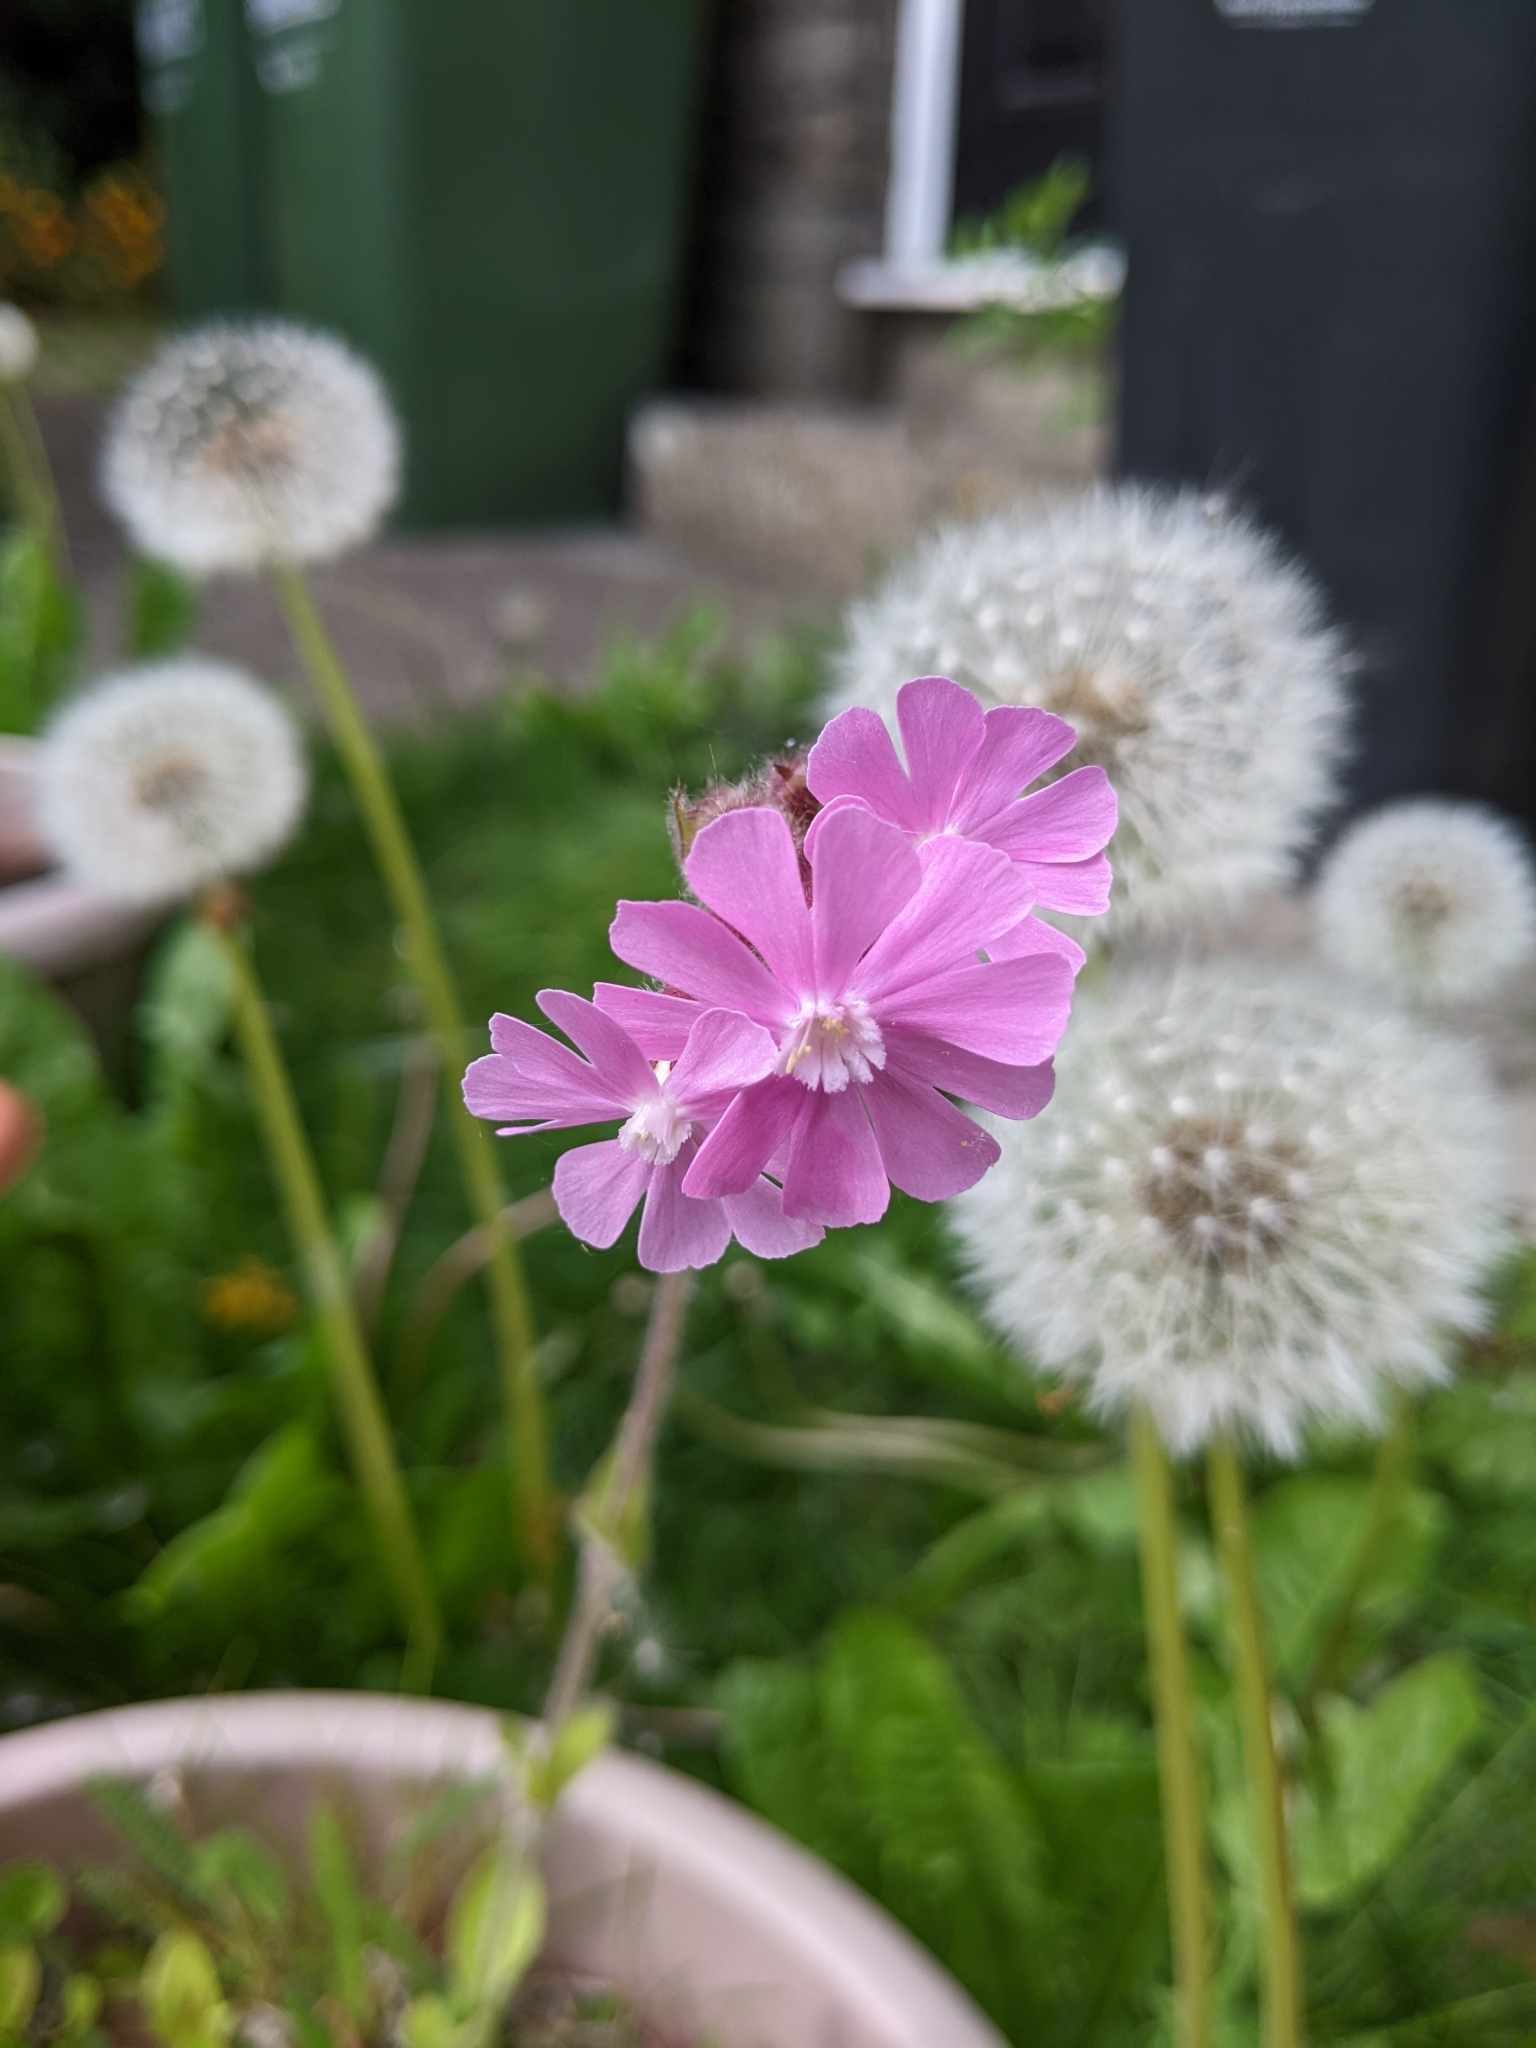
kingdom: Plantae
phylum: Tracheophyta
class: Magnoliopsida
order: Caryophyllales
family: Caryophyllaceae
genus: Silene
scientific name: Silene dioica
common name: Red campion
